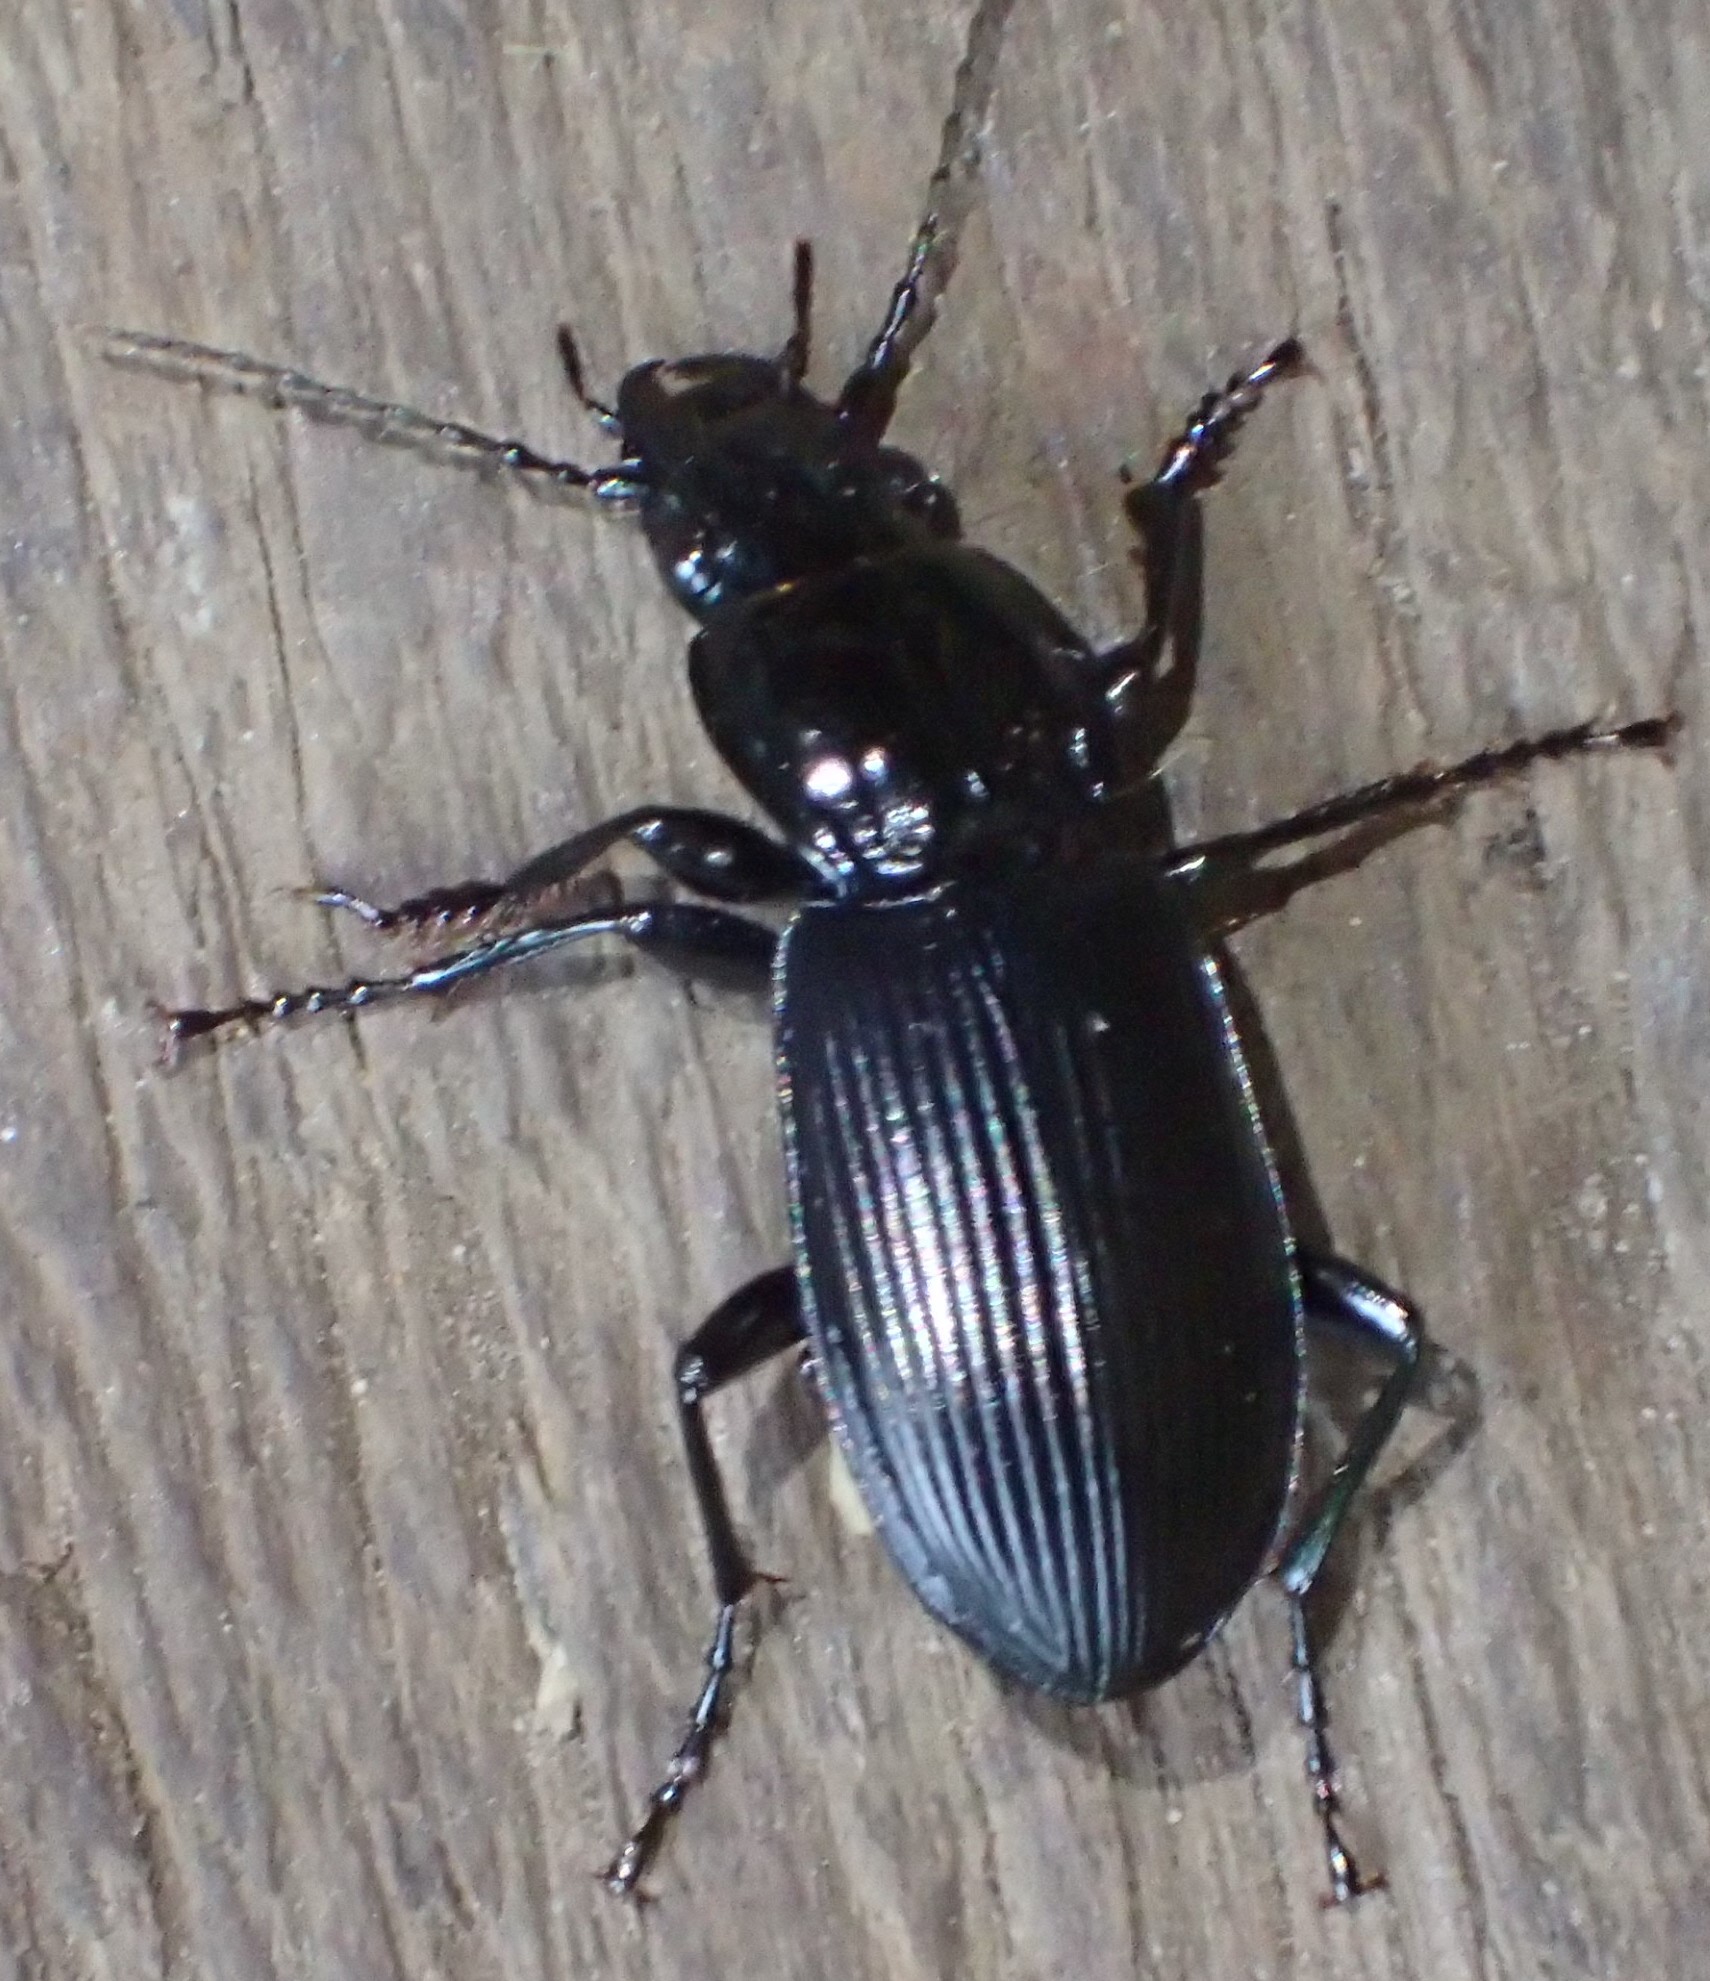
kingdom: Animalia
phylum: Arthropoda
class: Insecta
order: Coleoptera
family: Carabidae
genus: Pterostichus
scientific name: Pterostichus melanarius
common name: European dark harp ground beetle
